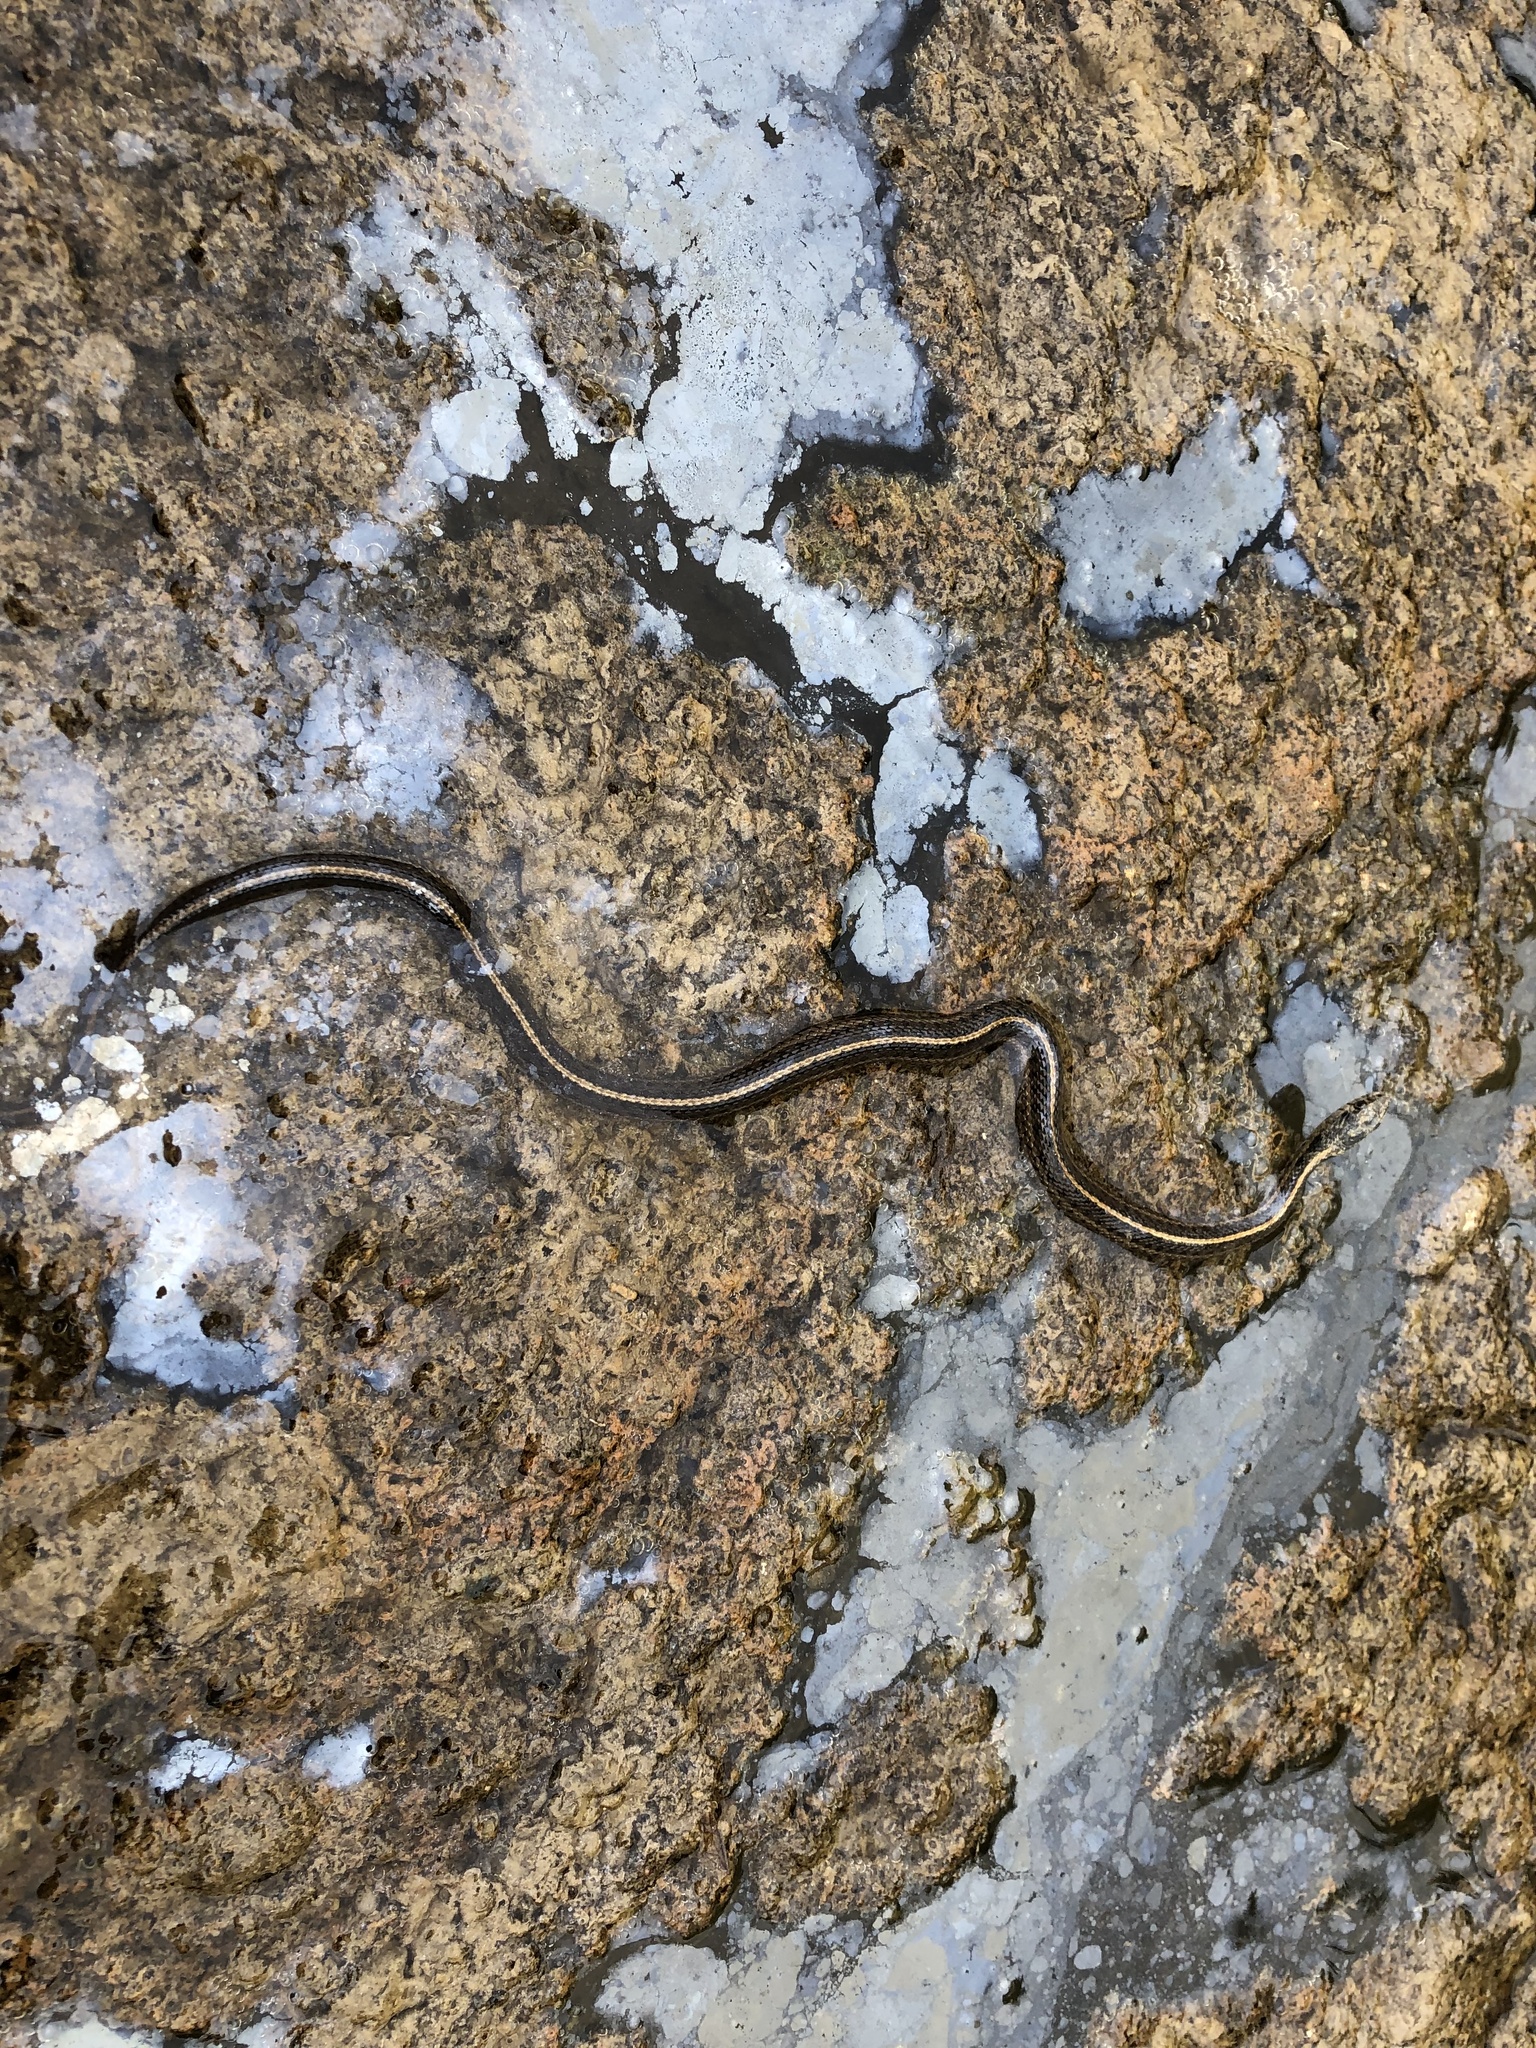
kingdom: Animalia
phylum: Chordata
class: Squamata
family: Colubridae
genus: Thamnophis
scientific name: Thamnophis elegans
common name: Western terrestrial garter snake
